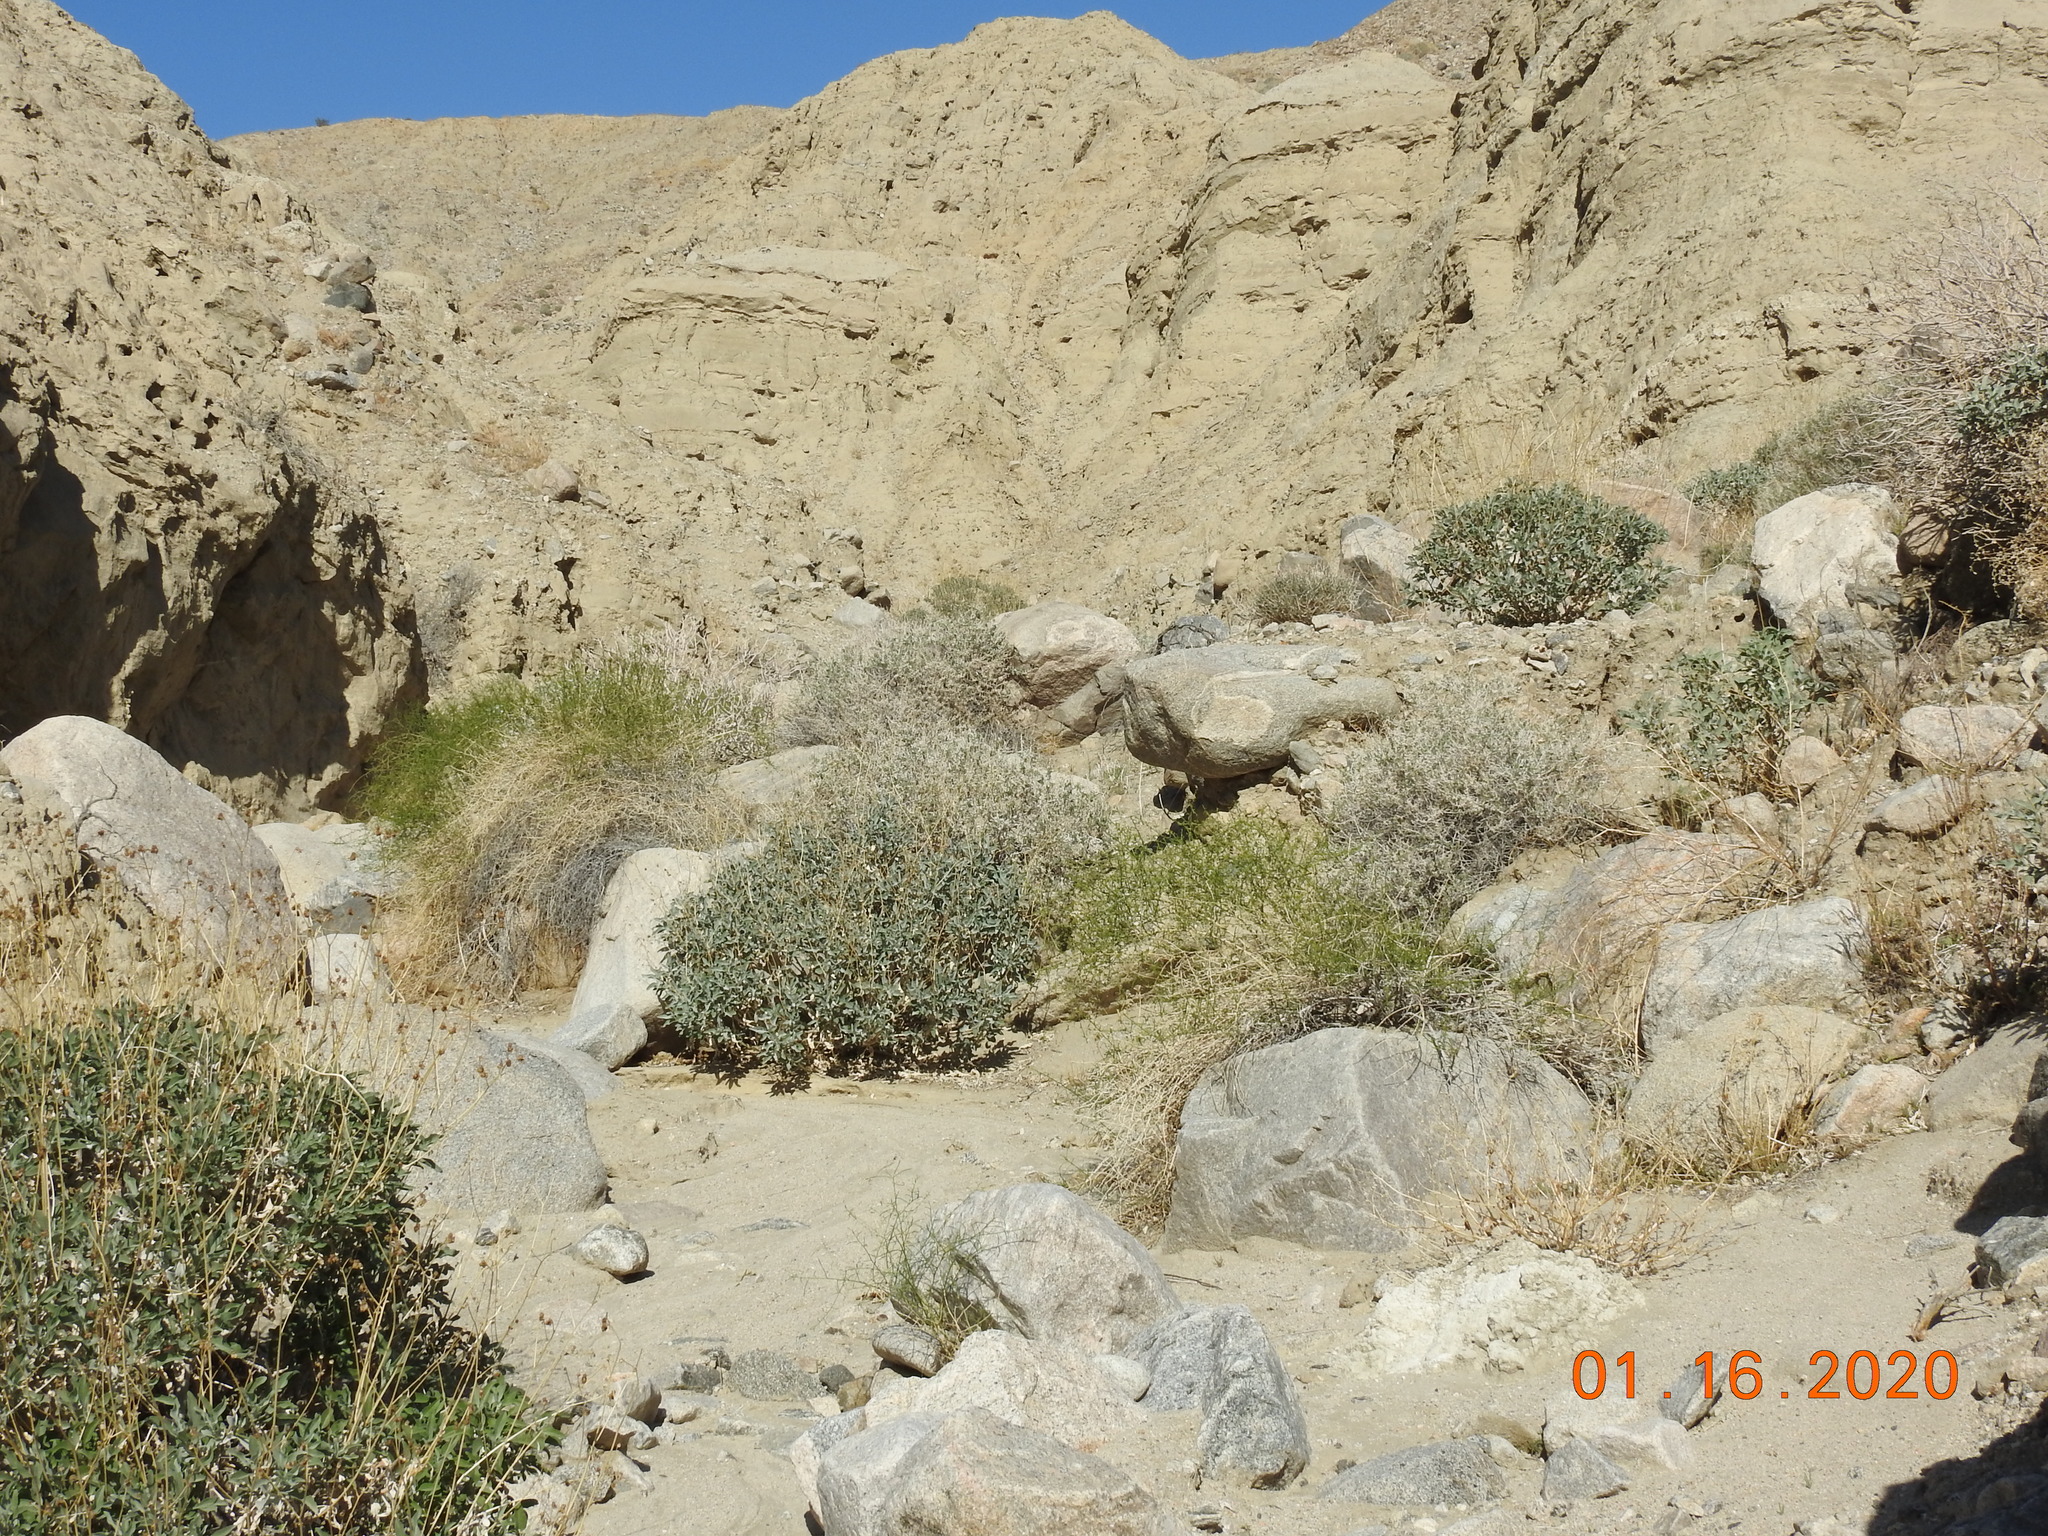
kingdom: Plantae
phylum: Tracheophyta
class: Magnoliopsida
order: Asterales
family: Asteraceae
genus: Encelia
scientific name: Encelia farinosa
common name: Brittlebush
